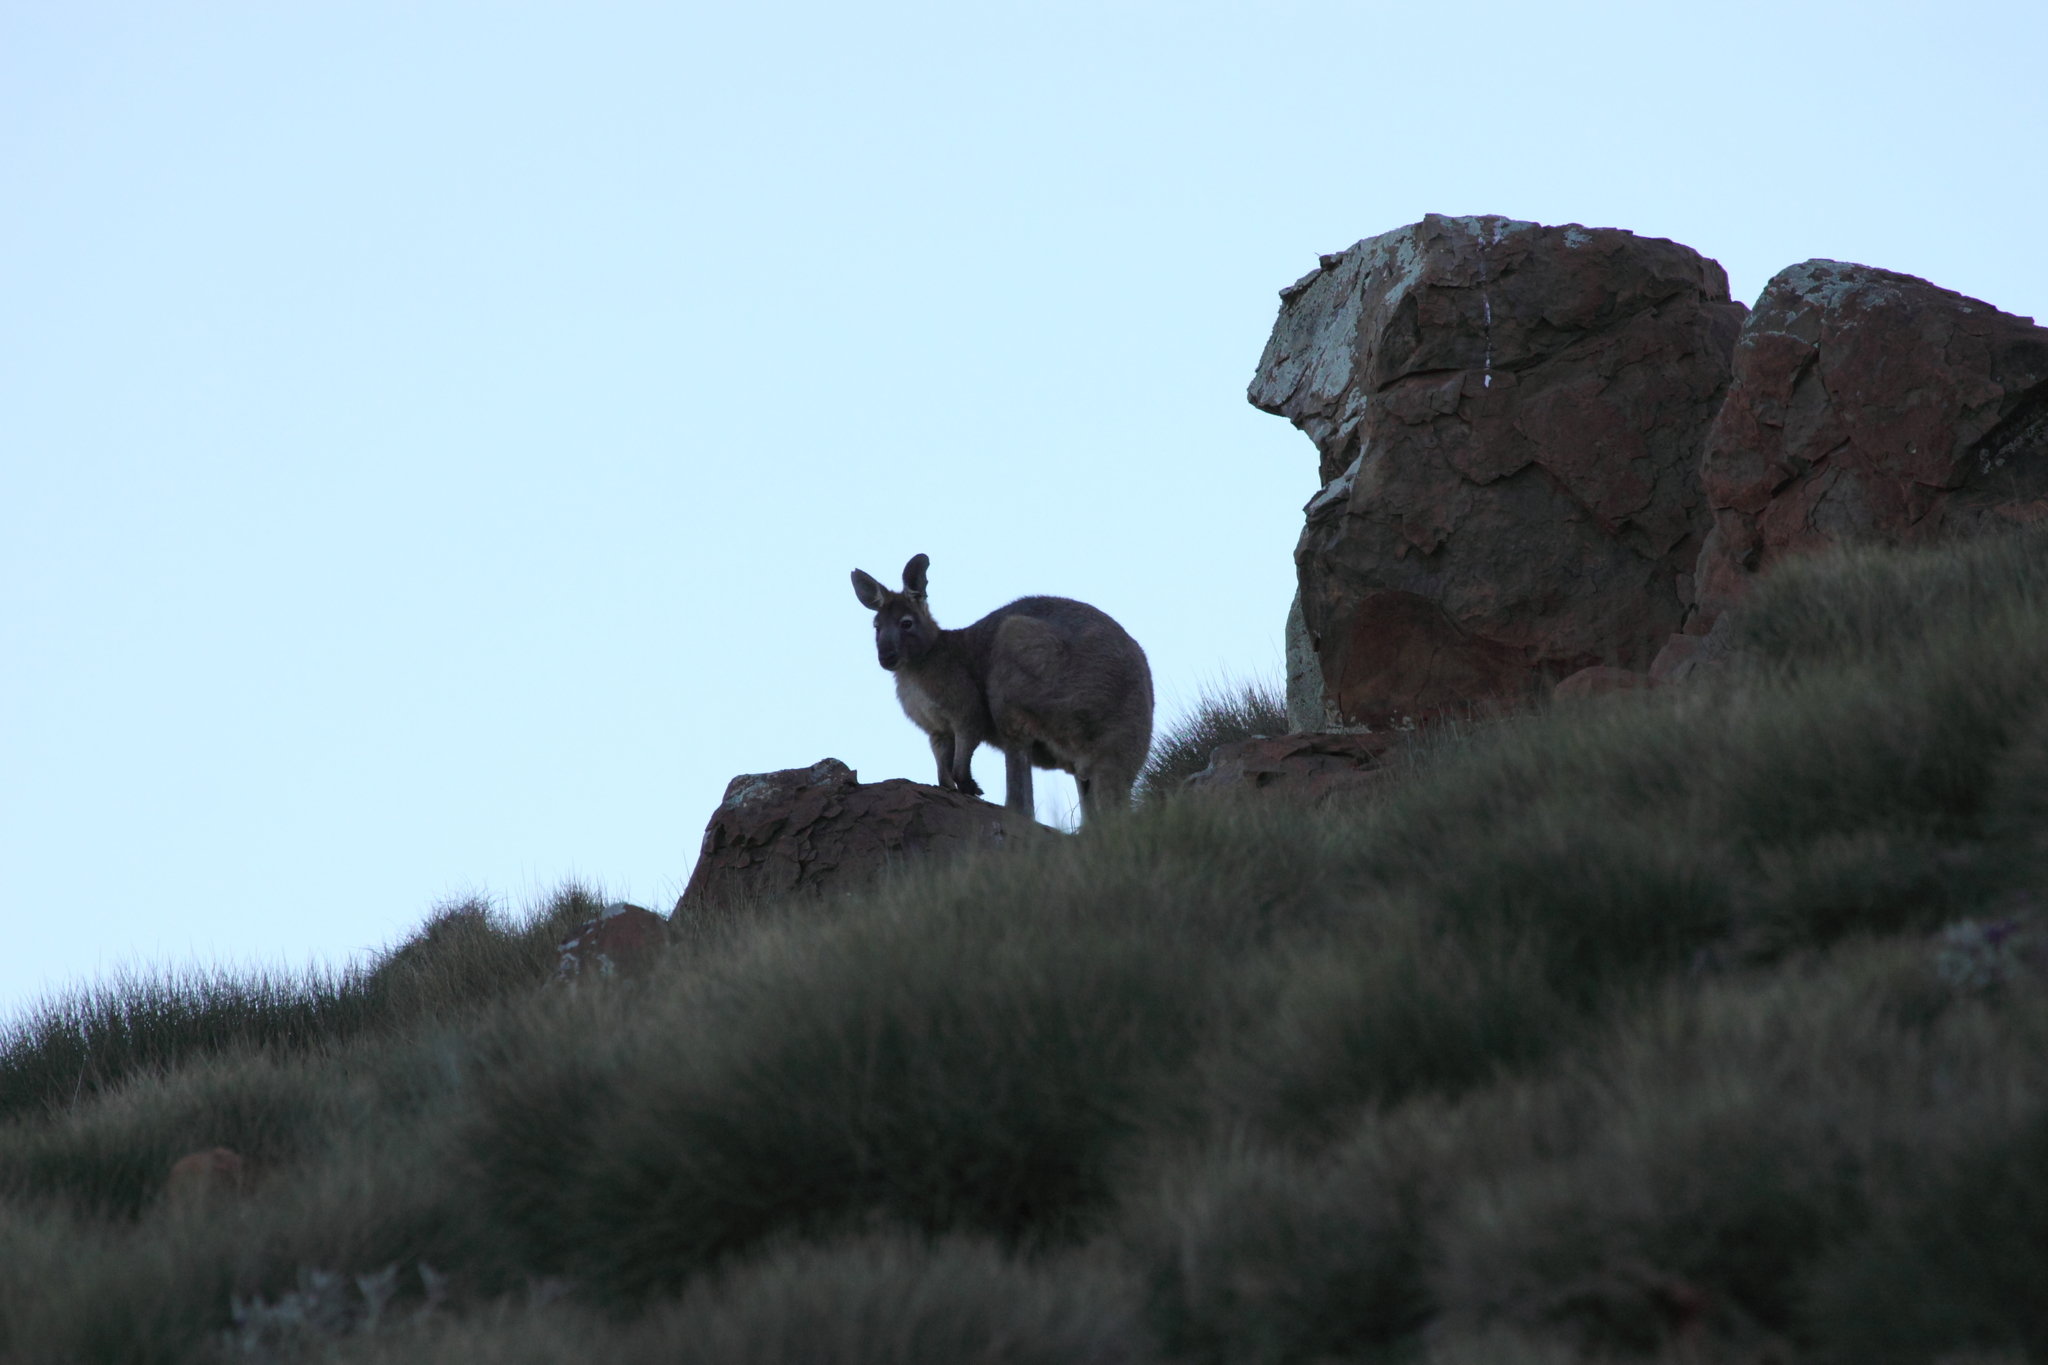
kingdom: Animalia
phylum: Chordata
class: Mammalia
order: Diprotodontia
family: Macropodidae
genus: Macropus
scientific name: Macropus robustus
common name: Eastern wallaroo
